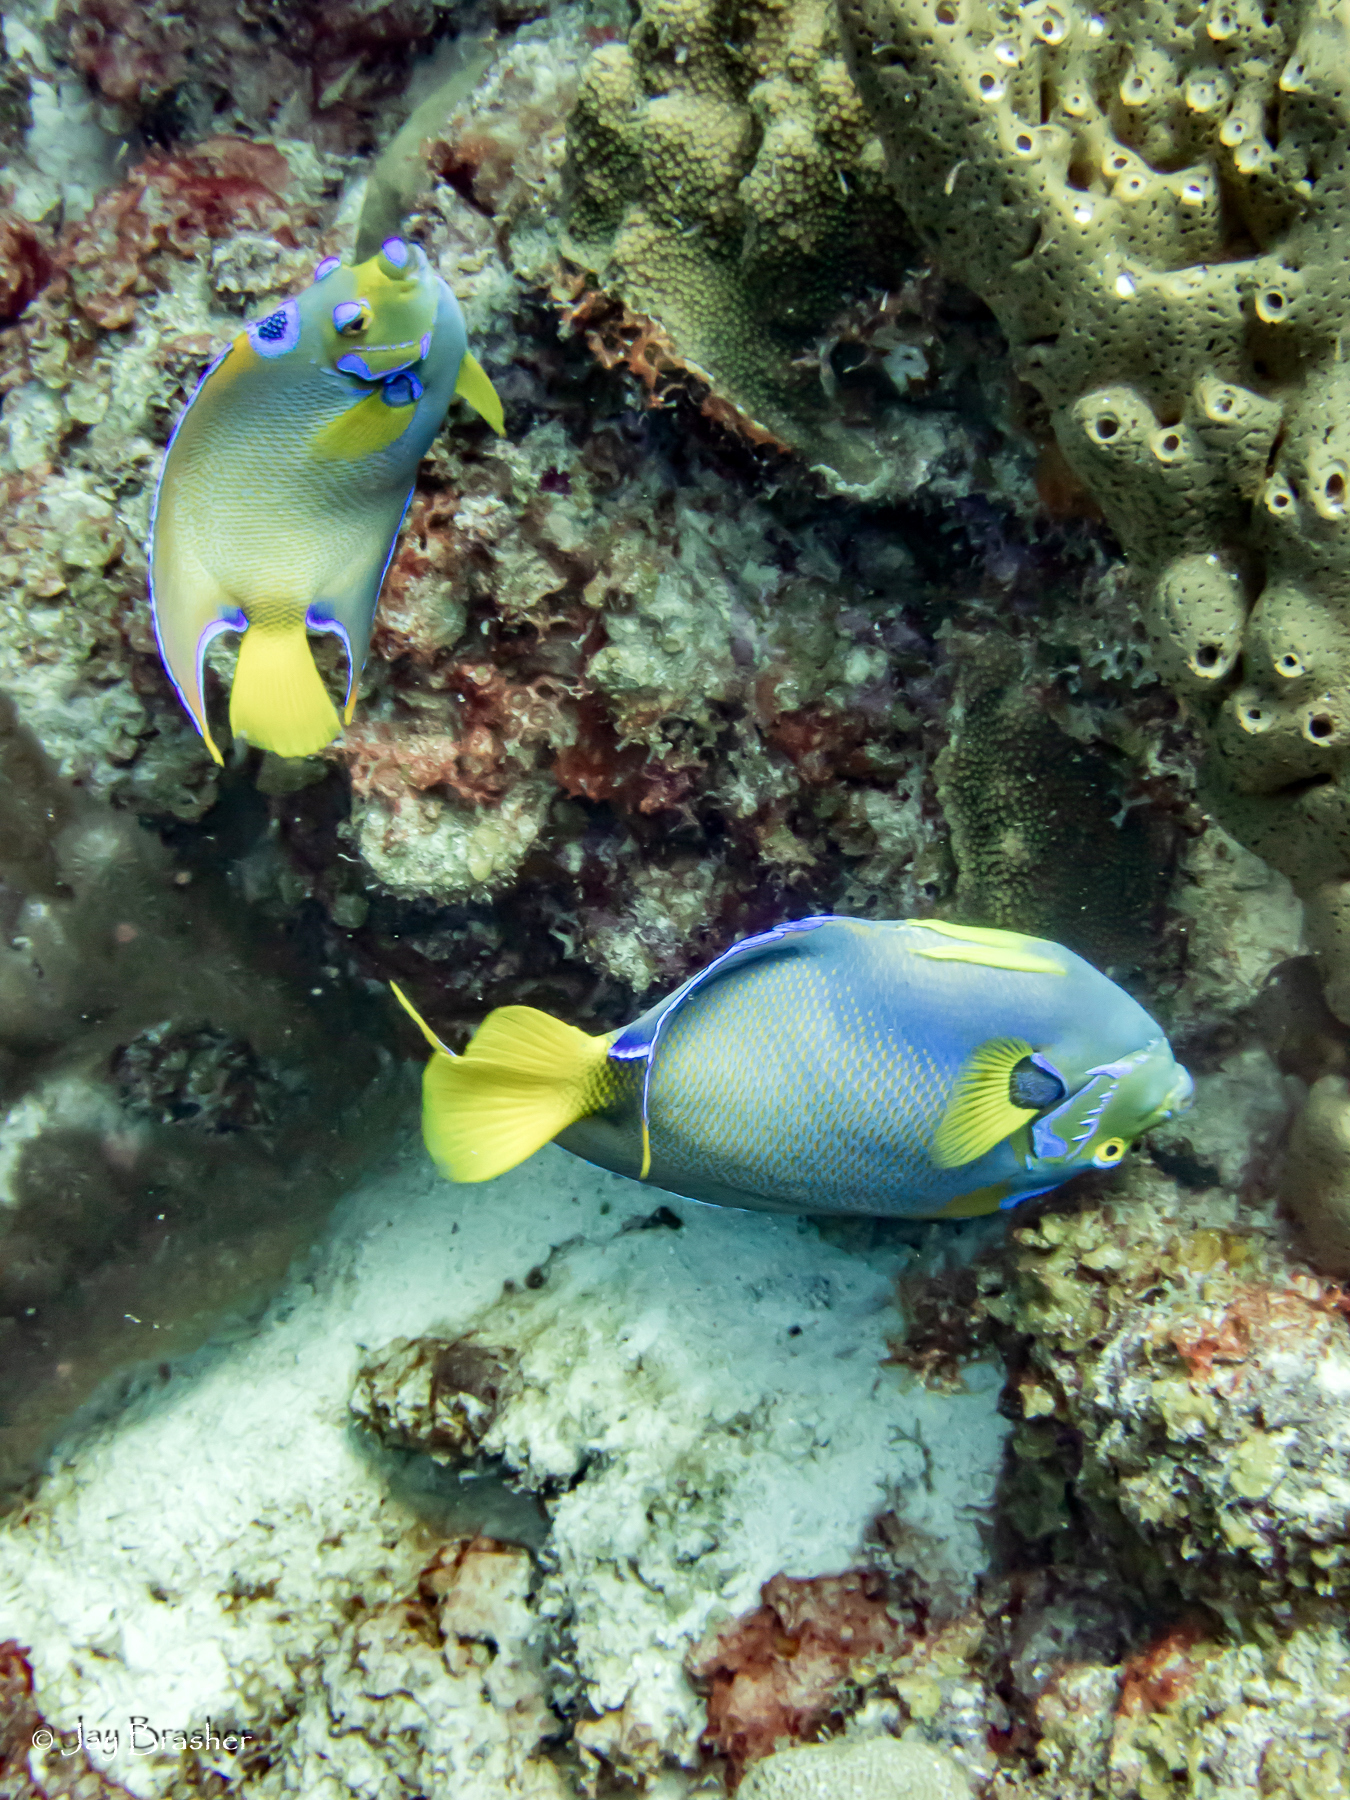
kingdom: Animalia
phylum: Chordata
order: Perciformes
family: Pomacanthidae
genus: Holacanthus
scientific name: Holacanthus ciliaris
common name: Queen angelfish
